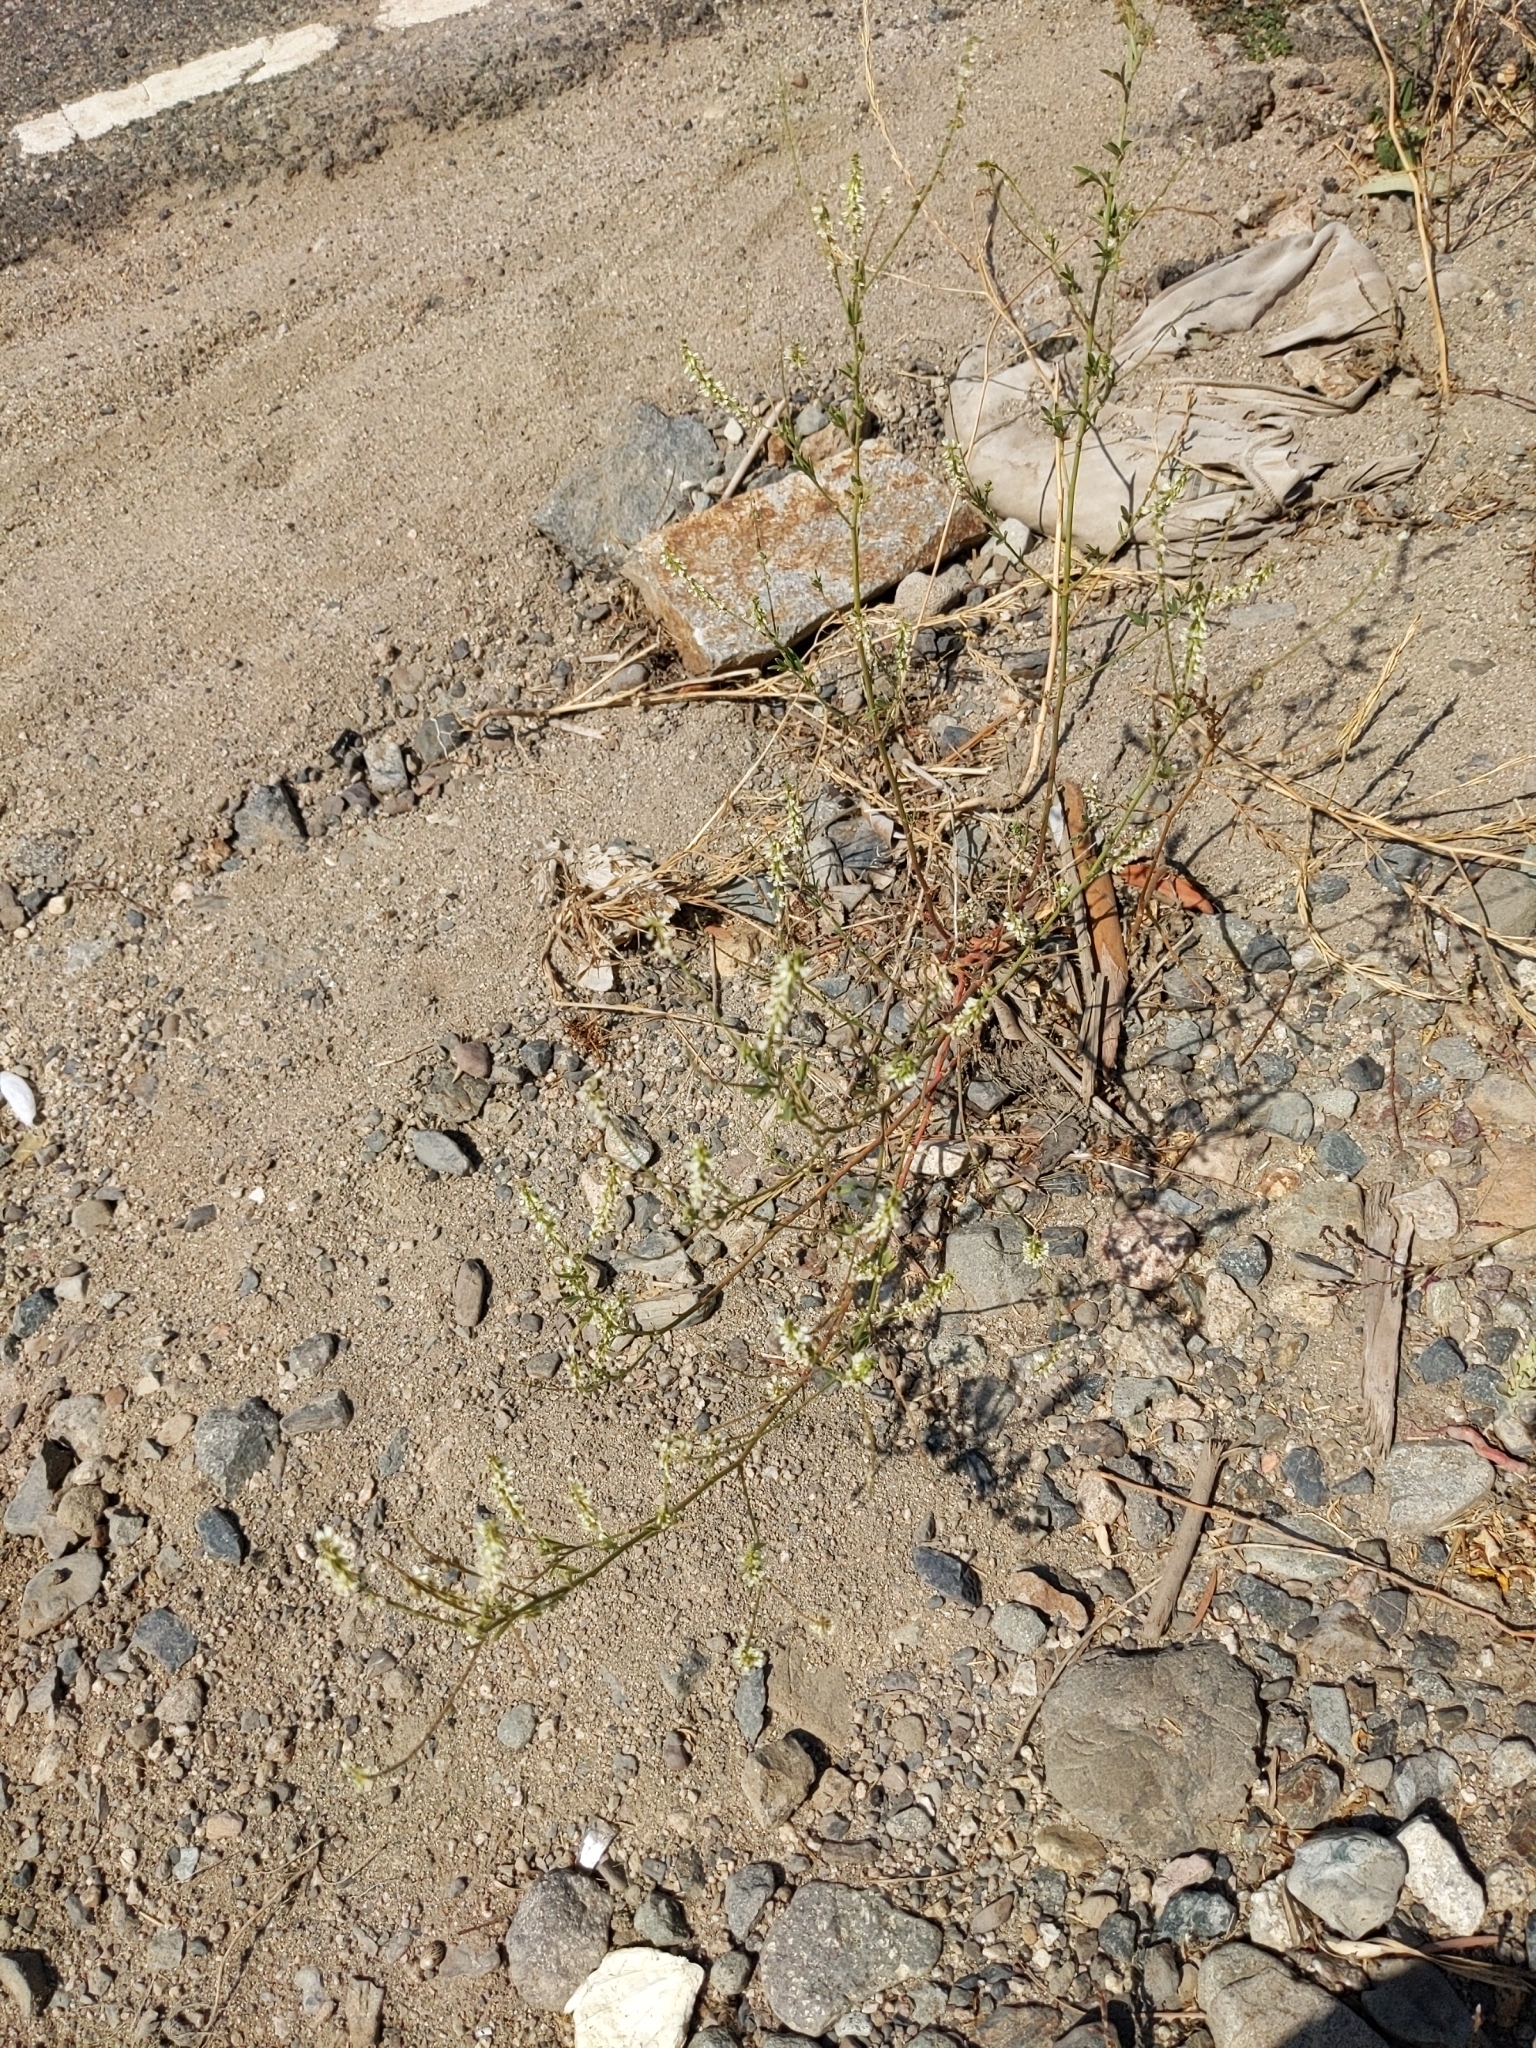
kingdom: Plantae
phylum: Tracheophyta
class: Magnoliopsida
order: Fabales
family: Fabaceae
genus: Melilotus
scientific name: Melilotus albus
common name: White melilot
